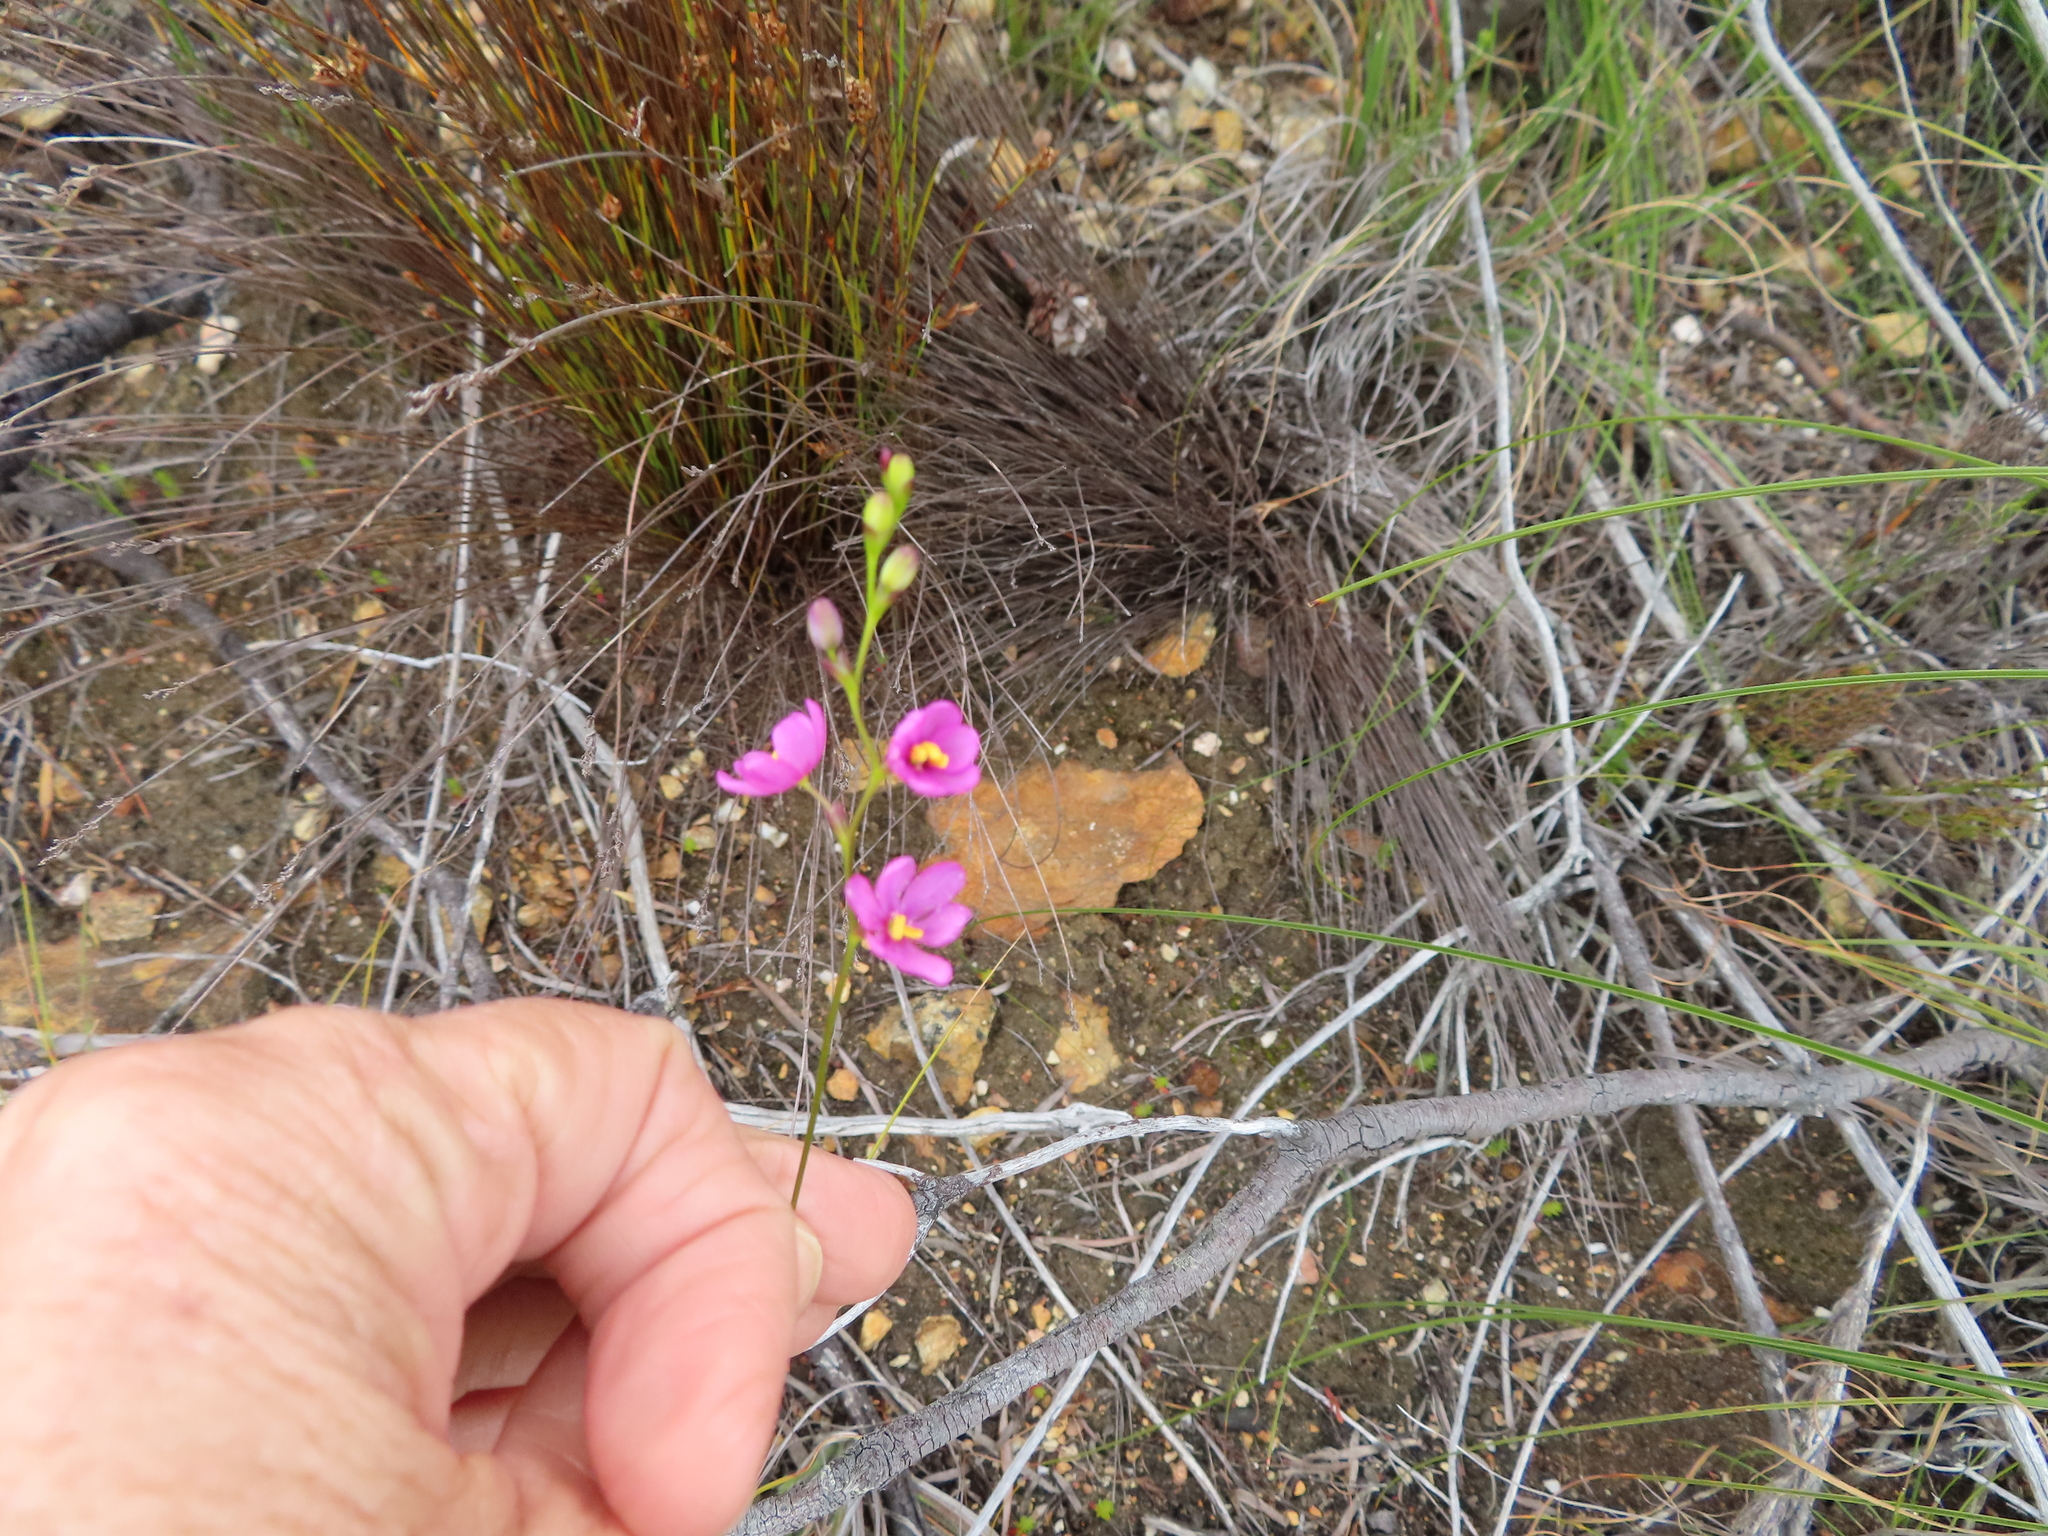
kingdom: Plantae
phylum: Tracheophyta
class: Liliopsida
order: Asparagales
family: Iridaceae
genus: Ixia
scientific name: Ixia stricta
